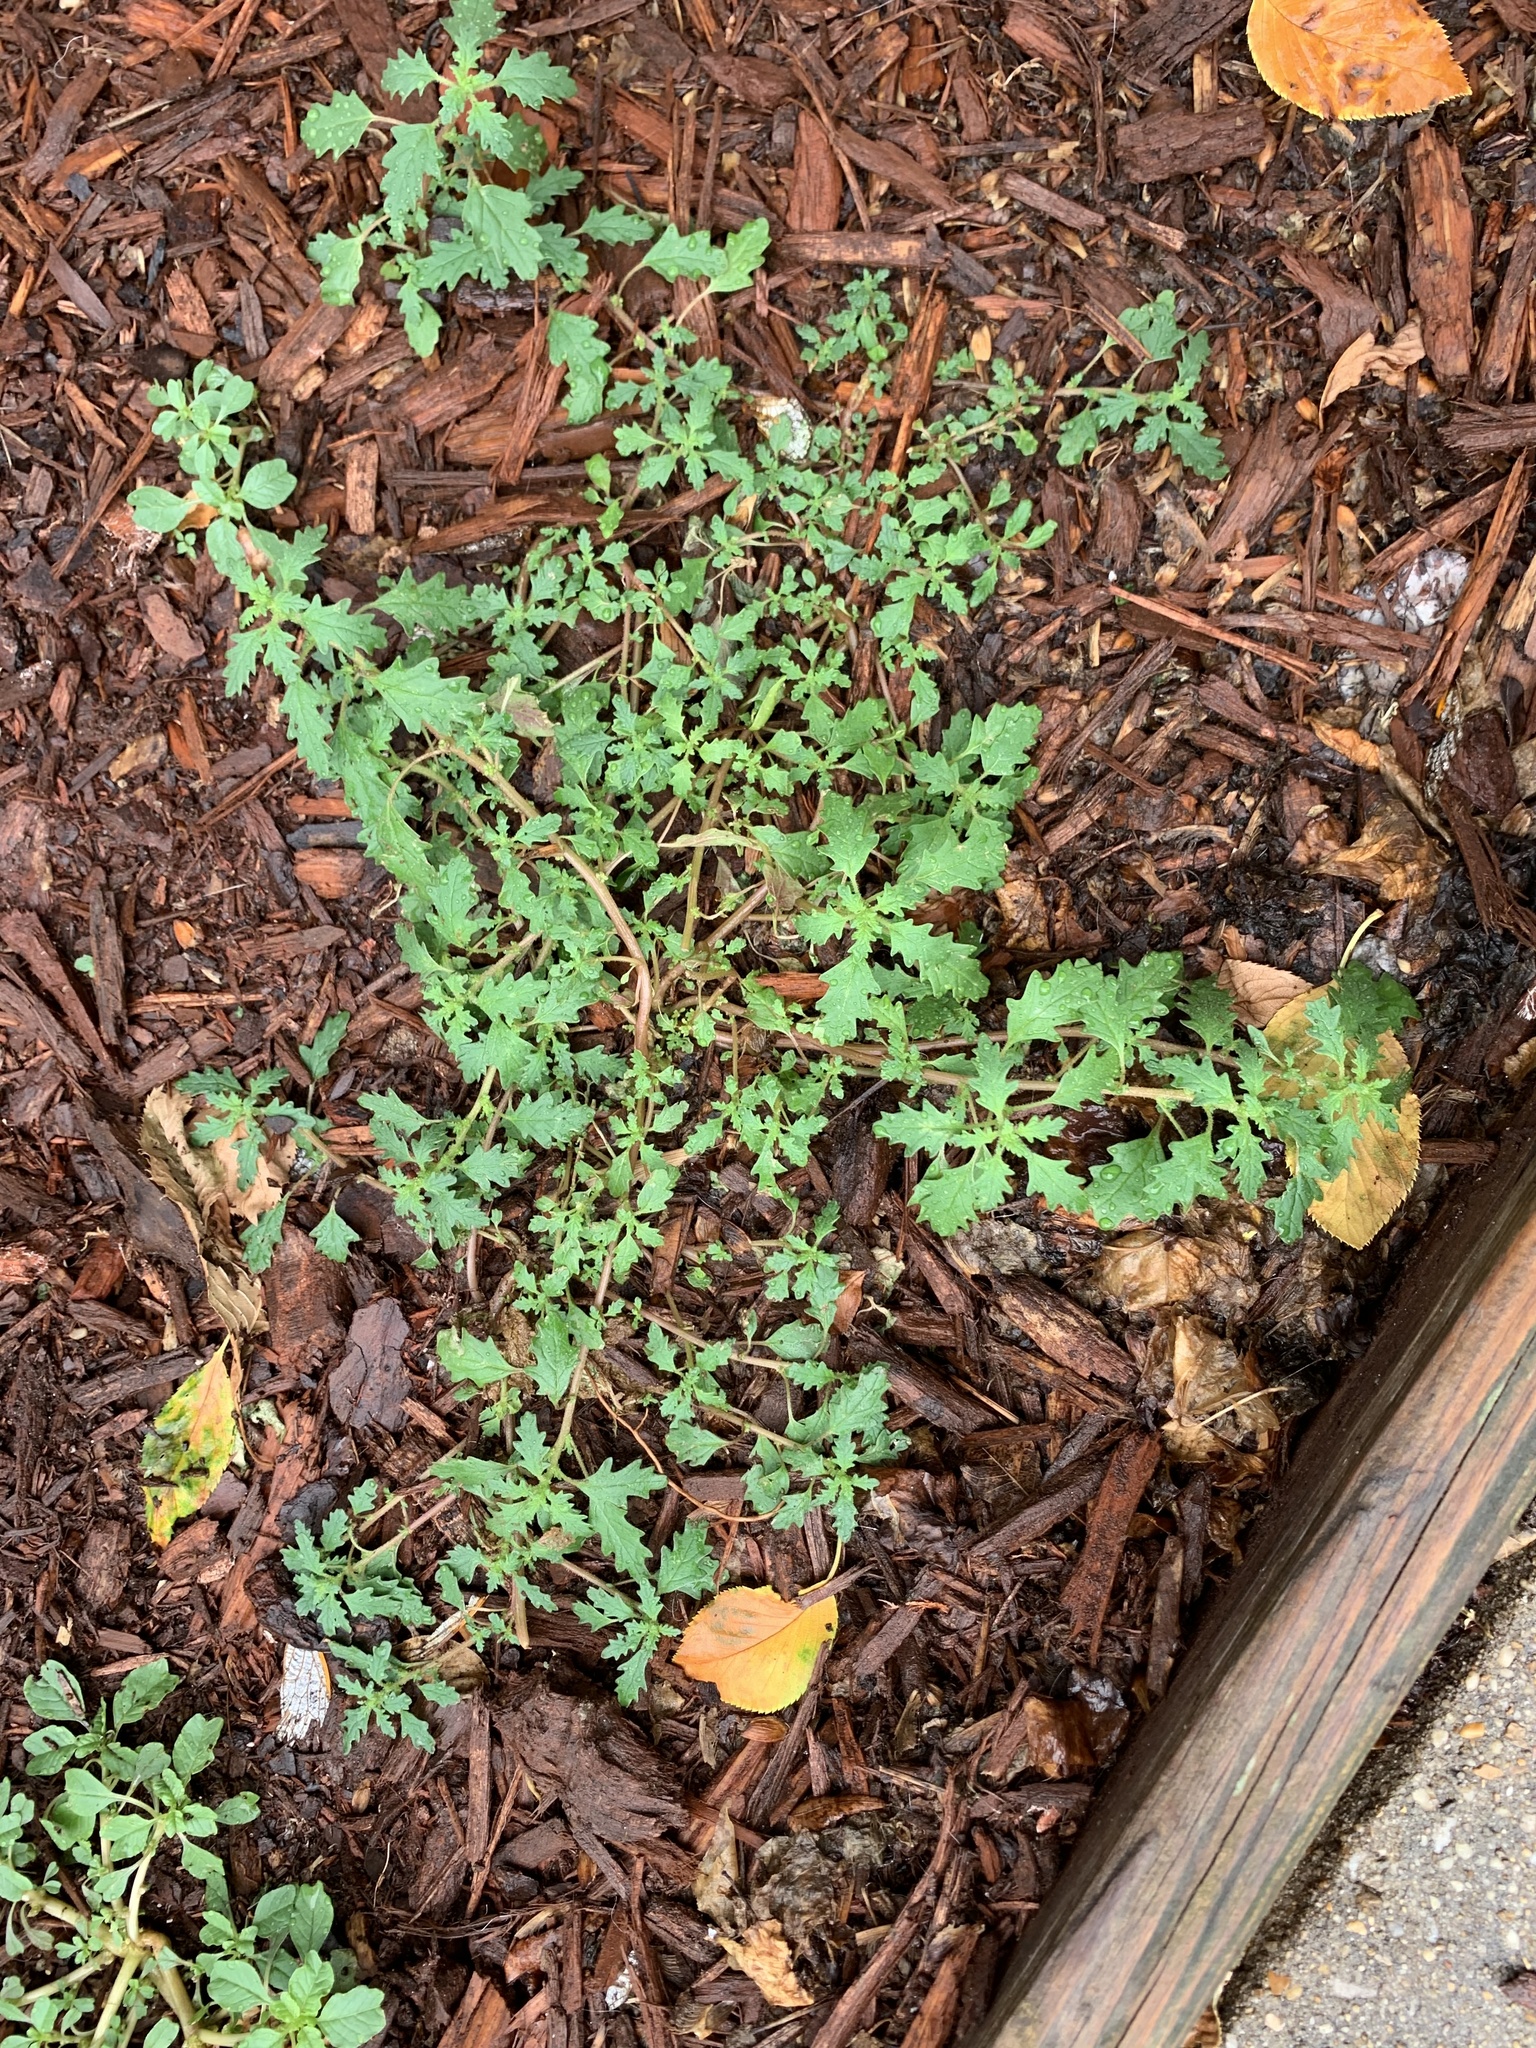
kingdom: Plantae
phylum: Tracheophyta
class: Magnoliopsida
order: Caryophyllales
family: Amaranthaceae
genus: Dysphania
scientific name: Dysphania pumilio
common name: Clammy goosefoot
